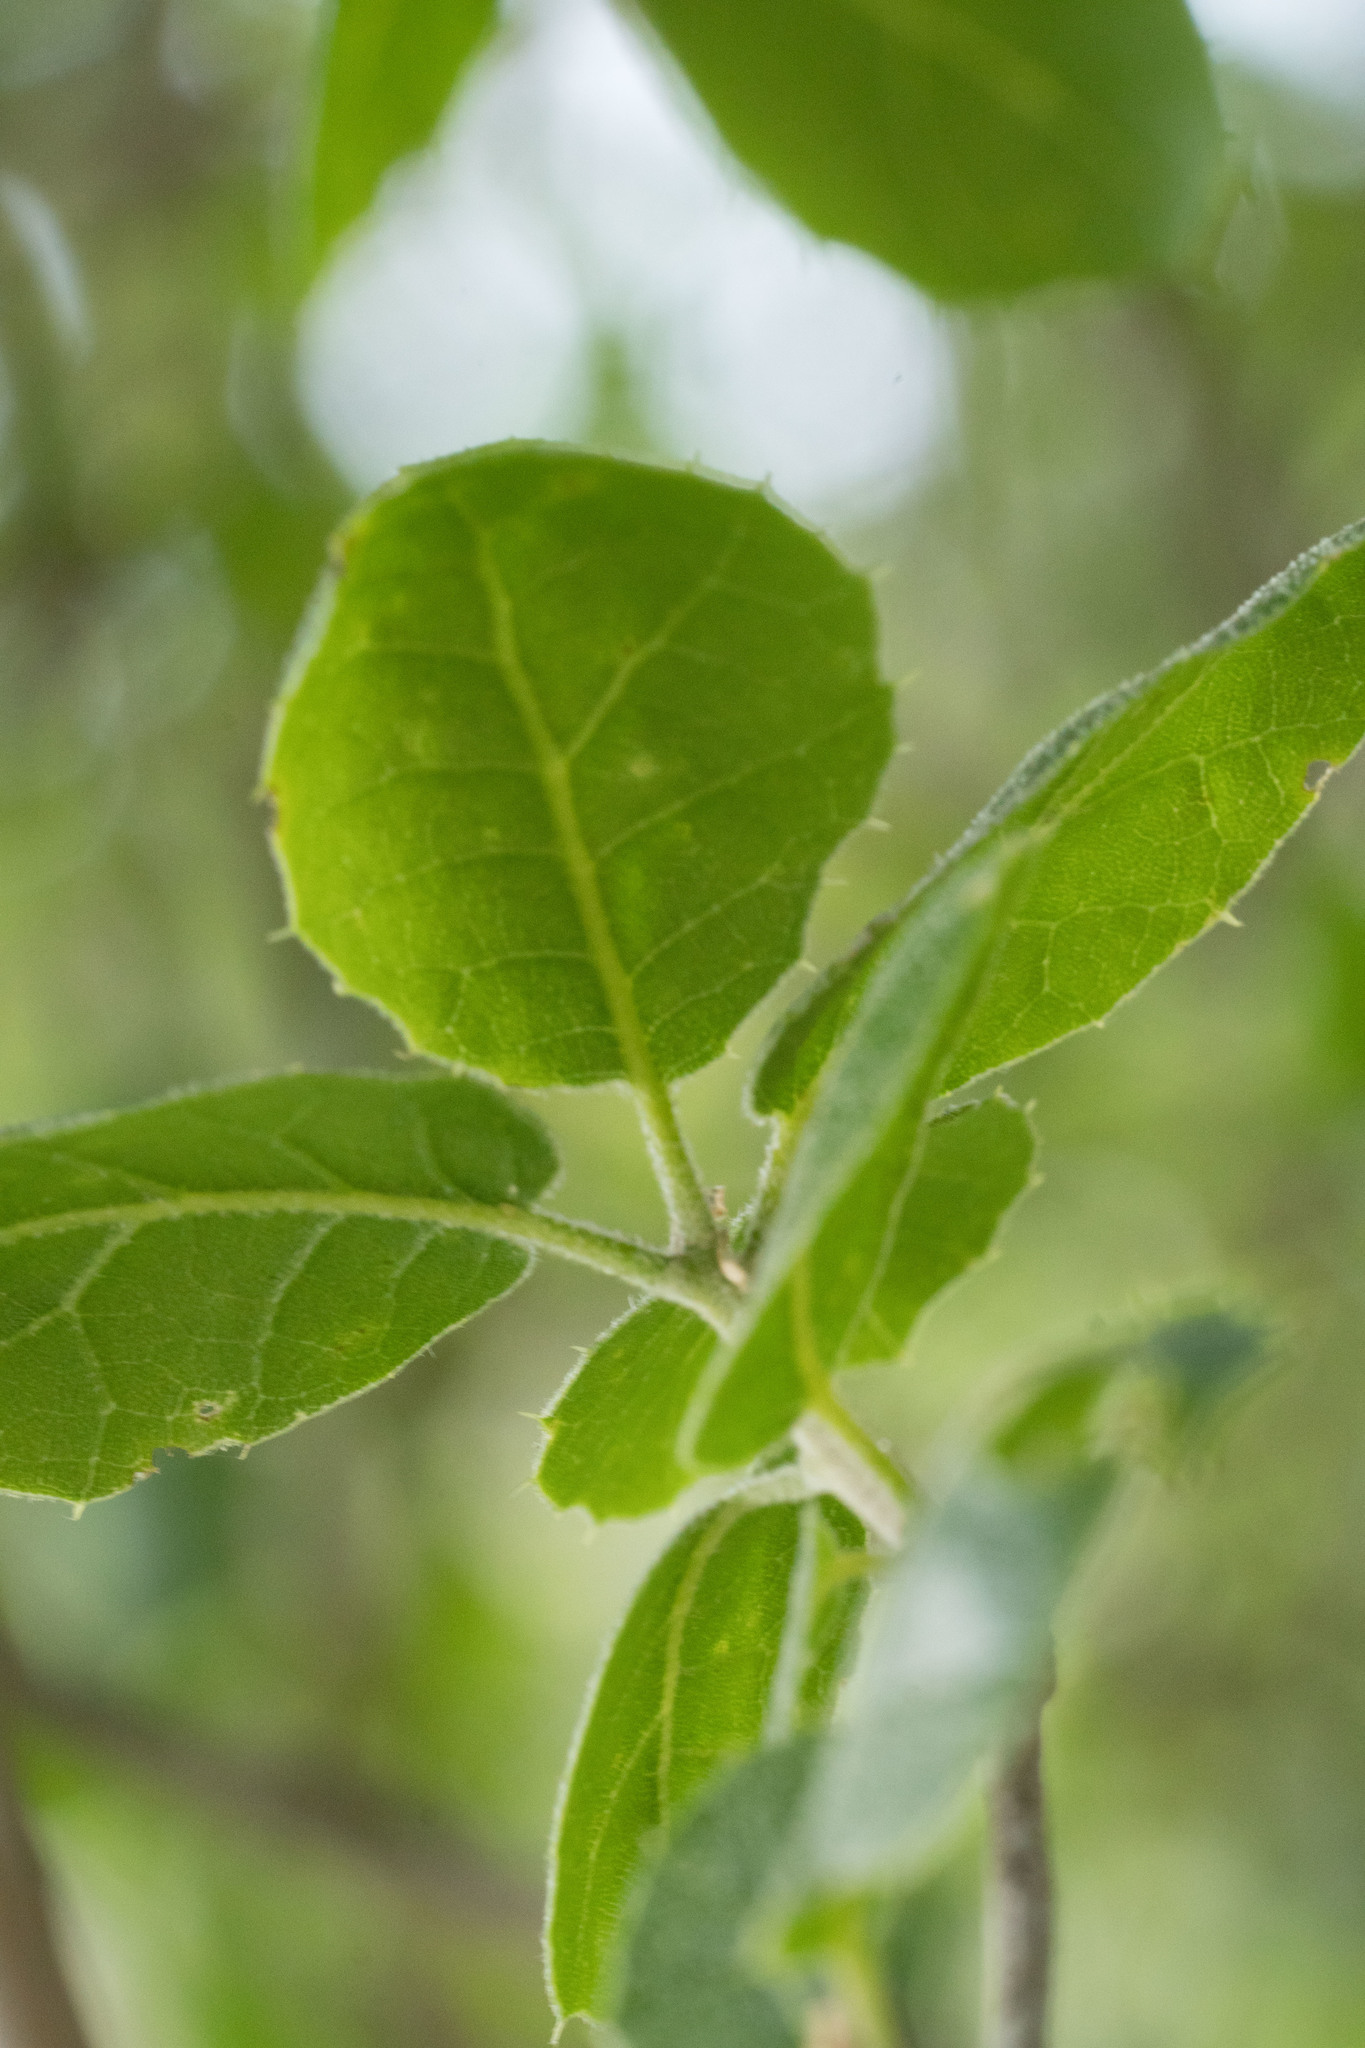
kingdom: Plantae
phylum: Tracheophyta
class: Magnoliopsida
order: Fagales
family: Fagaceae
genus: Quercus
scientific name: Quercus agrifolia
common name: California live oak
